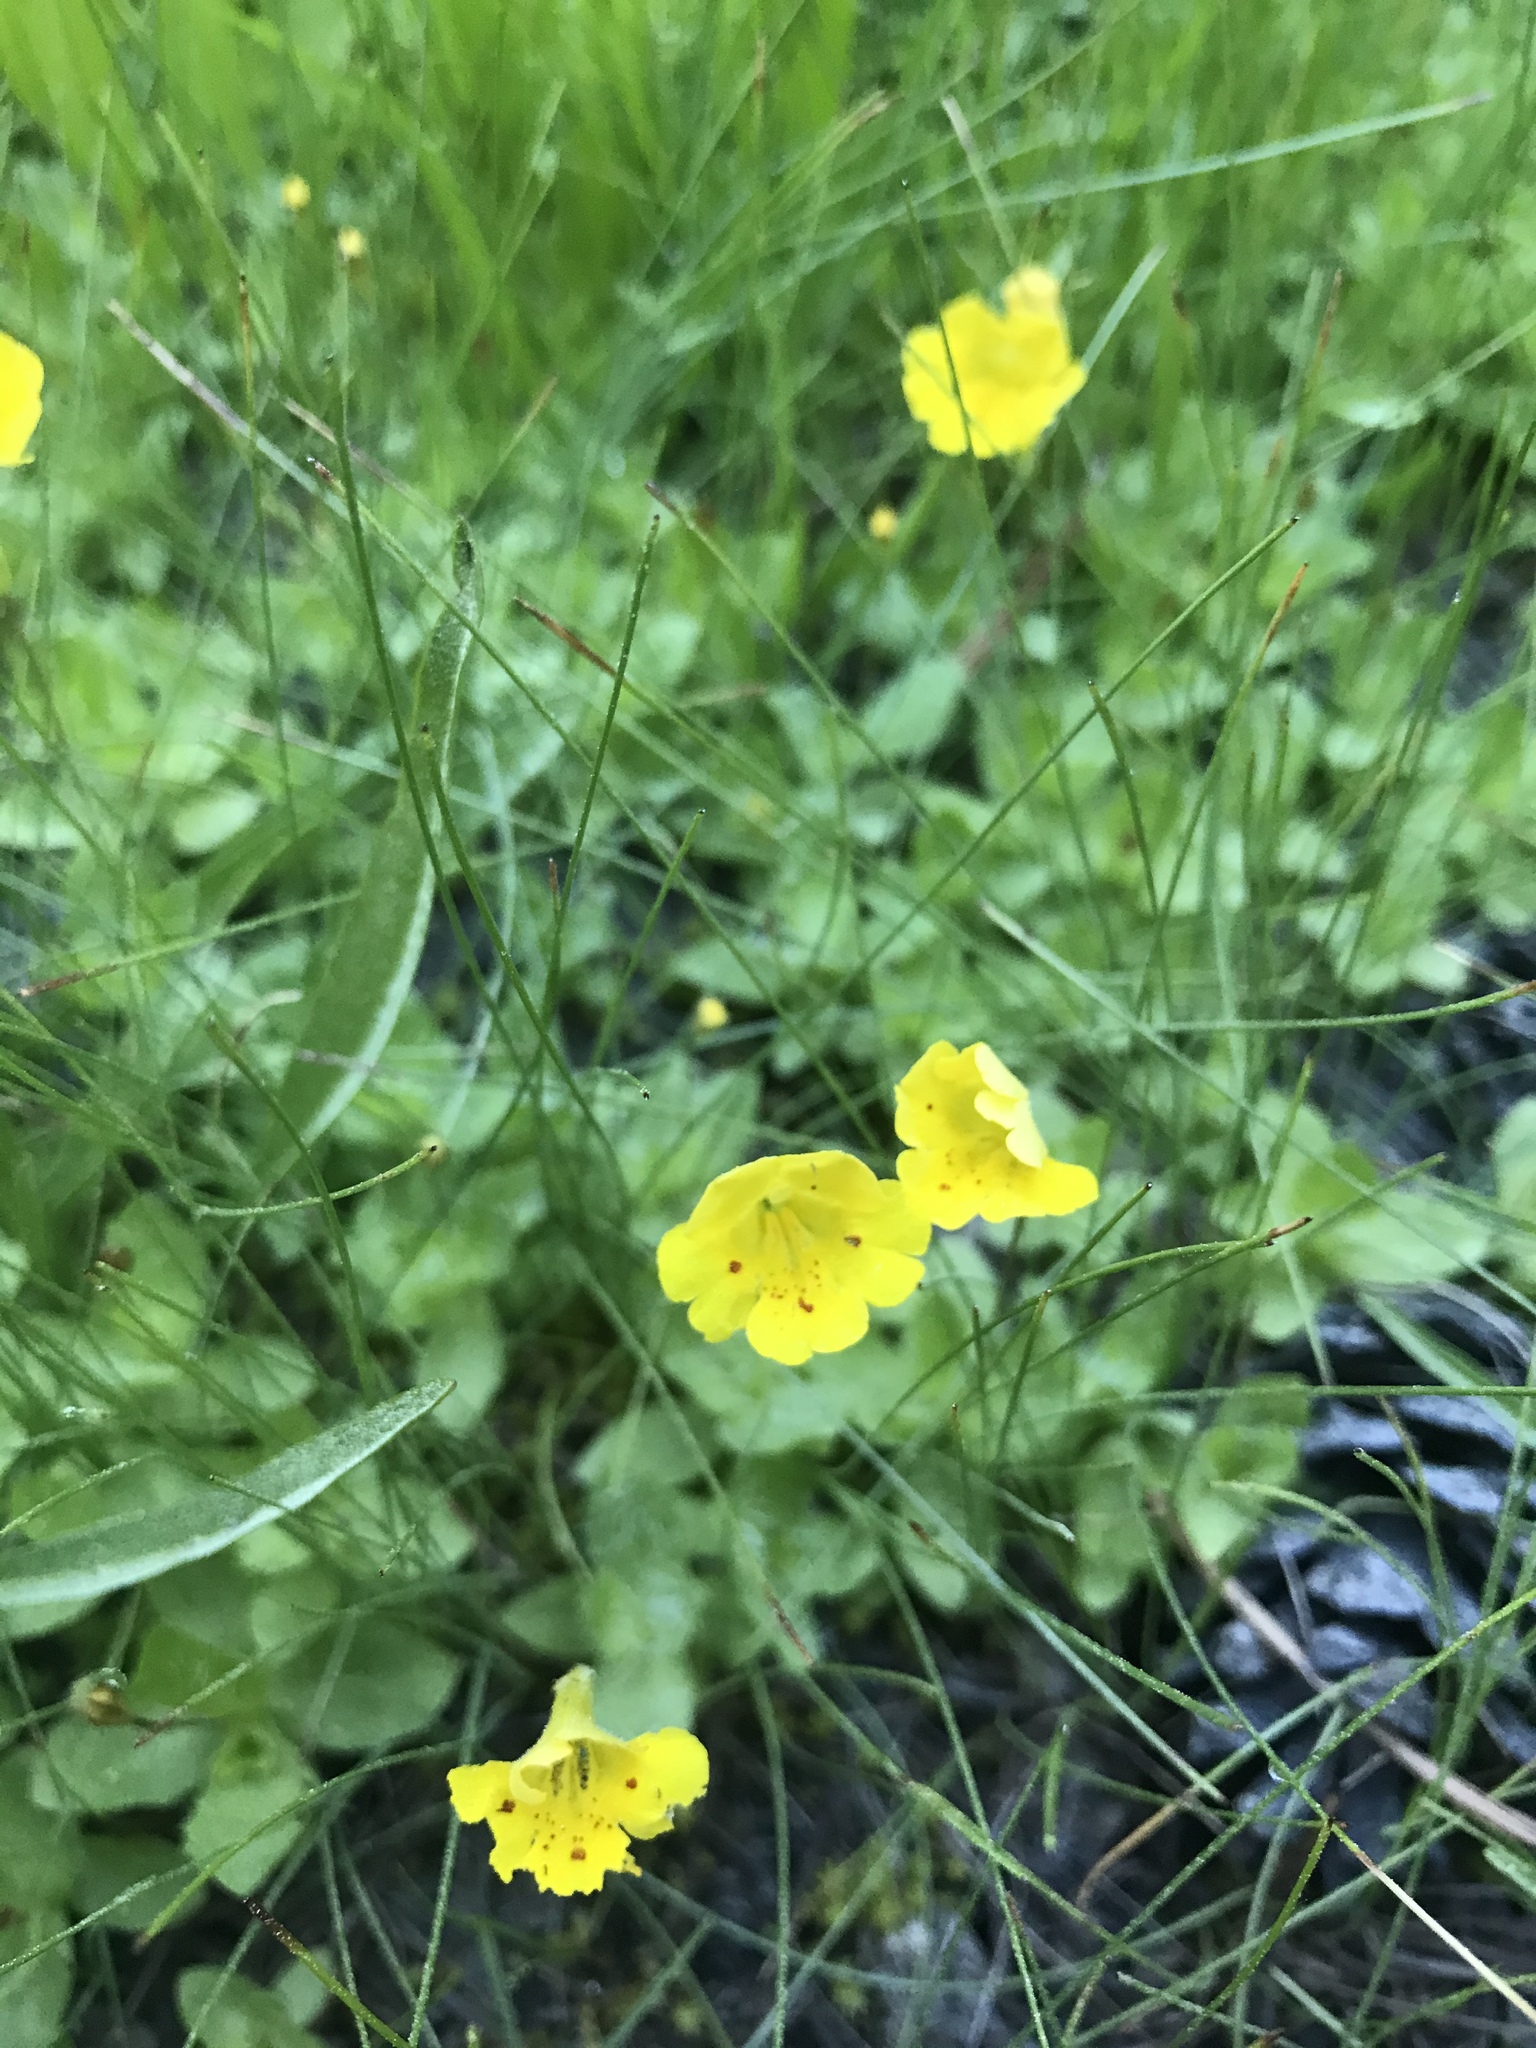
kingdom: Plantae
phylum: Tracheophyta
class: Magnoliopsida
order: Lamiales
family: Phrymaceae
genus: Erythranthe
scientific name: Erythranthe primuloides
